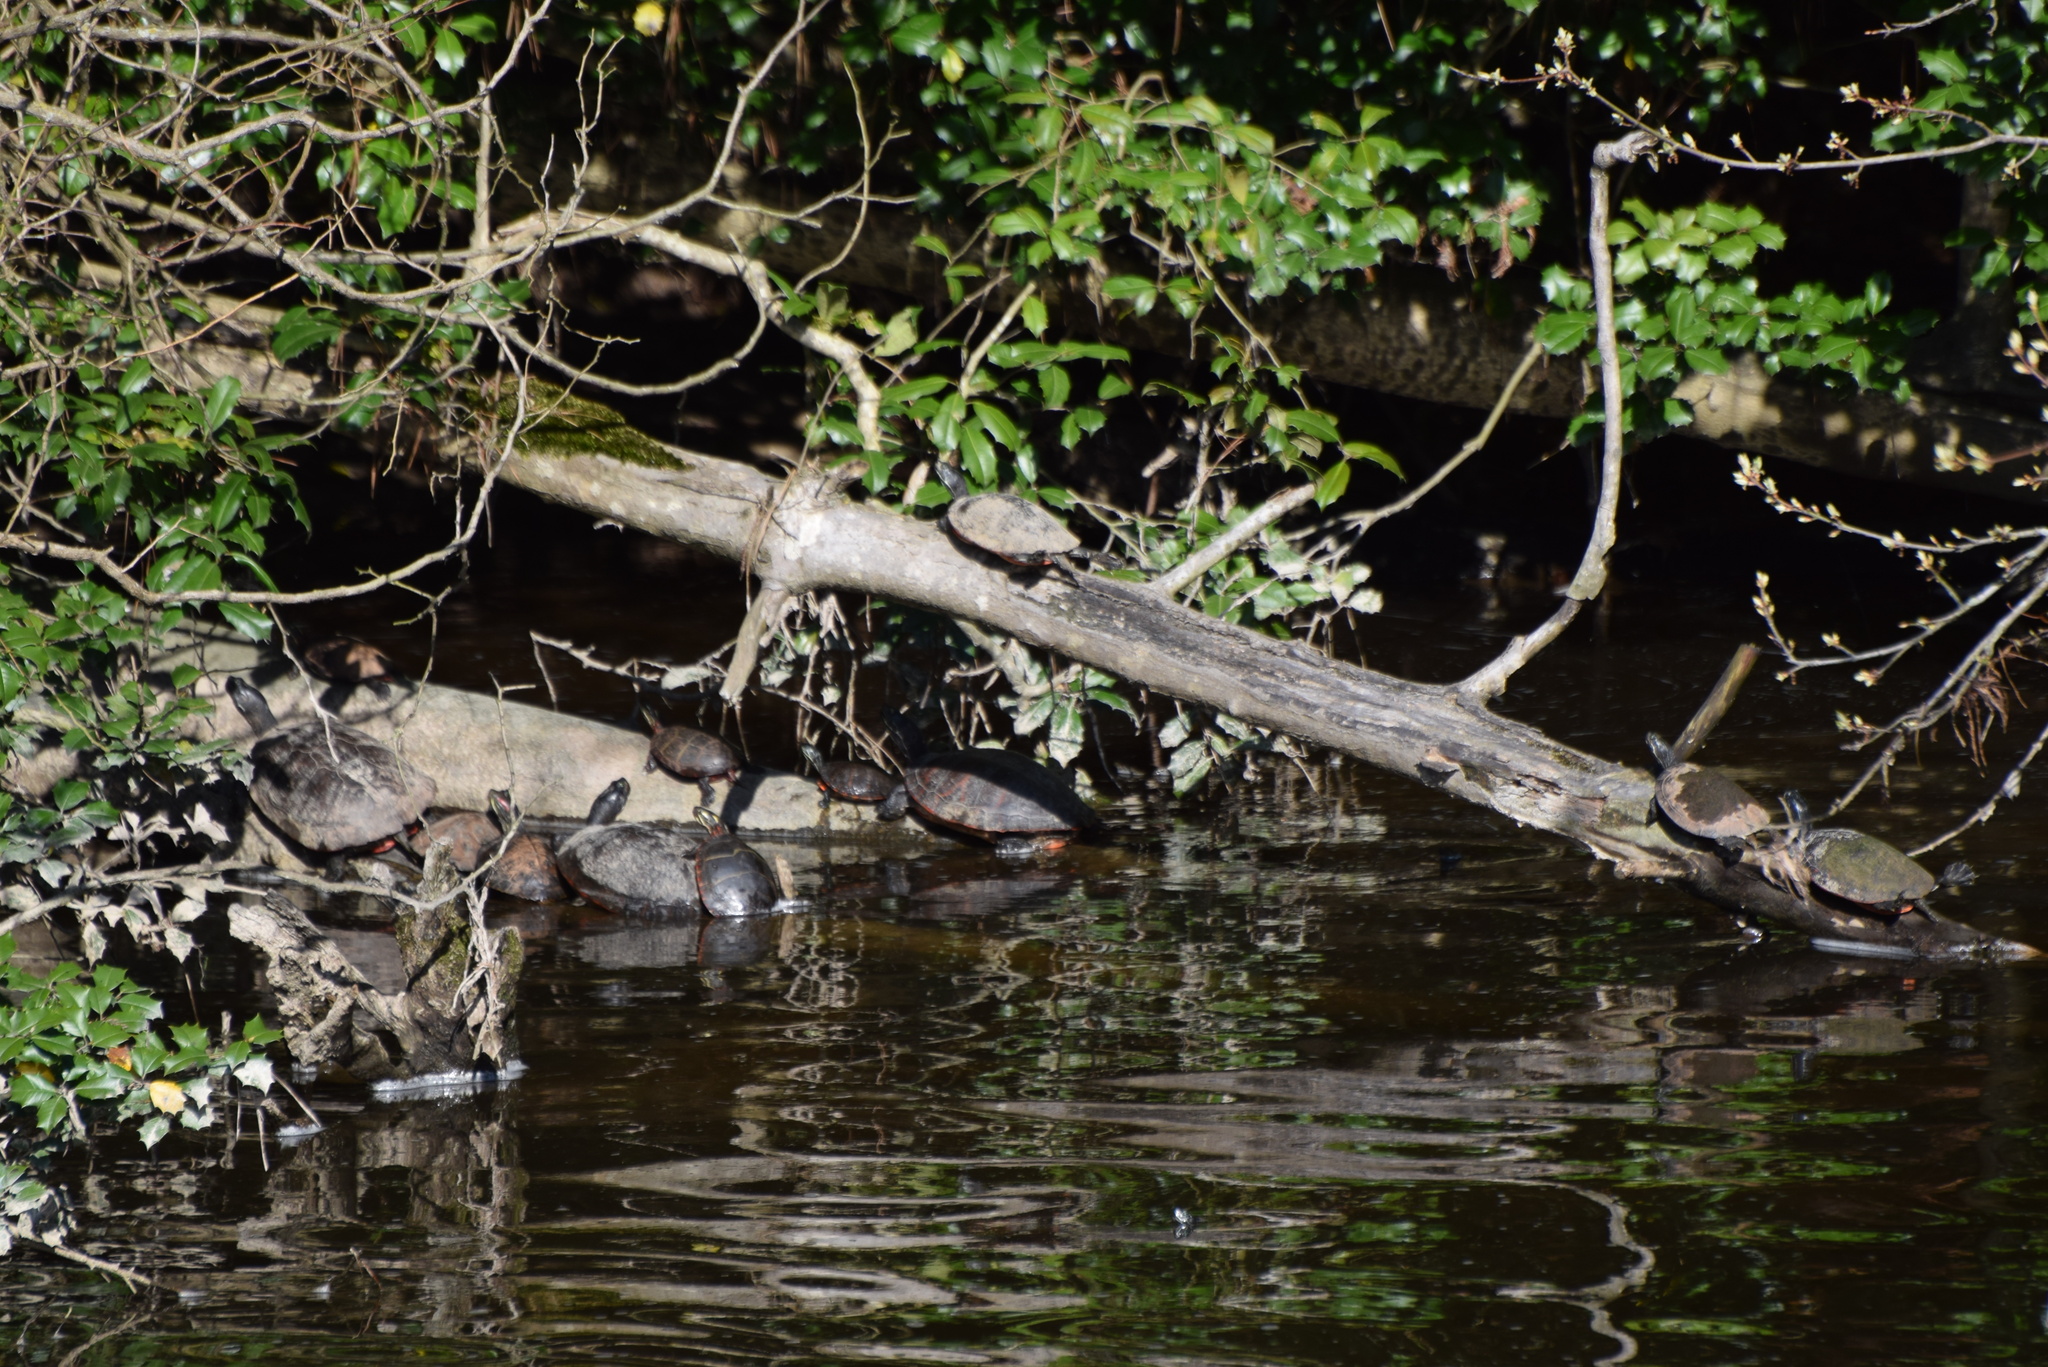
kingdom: Animalia
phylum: Chordata
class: Testudines
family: Emydidae
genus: Trachemys
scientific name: Trachemys scripta
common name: Slider
